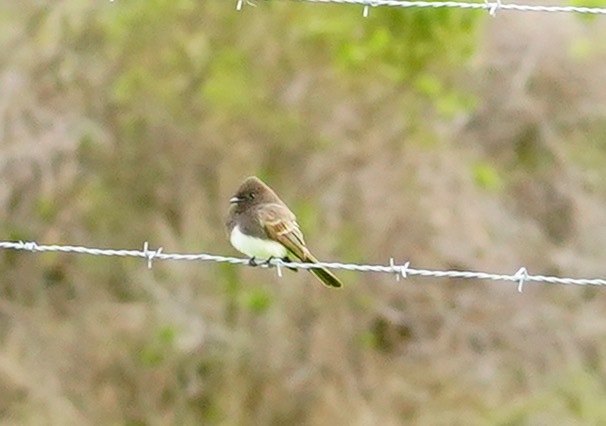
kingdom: Animalia
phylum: Chordata
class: Aves
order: Passeriformes
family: Tyrannidae
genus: Sayornis
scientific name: Sayornis nigricans
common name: Black phoebe
